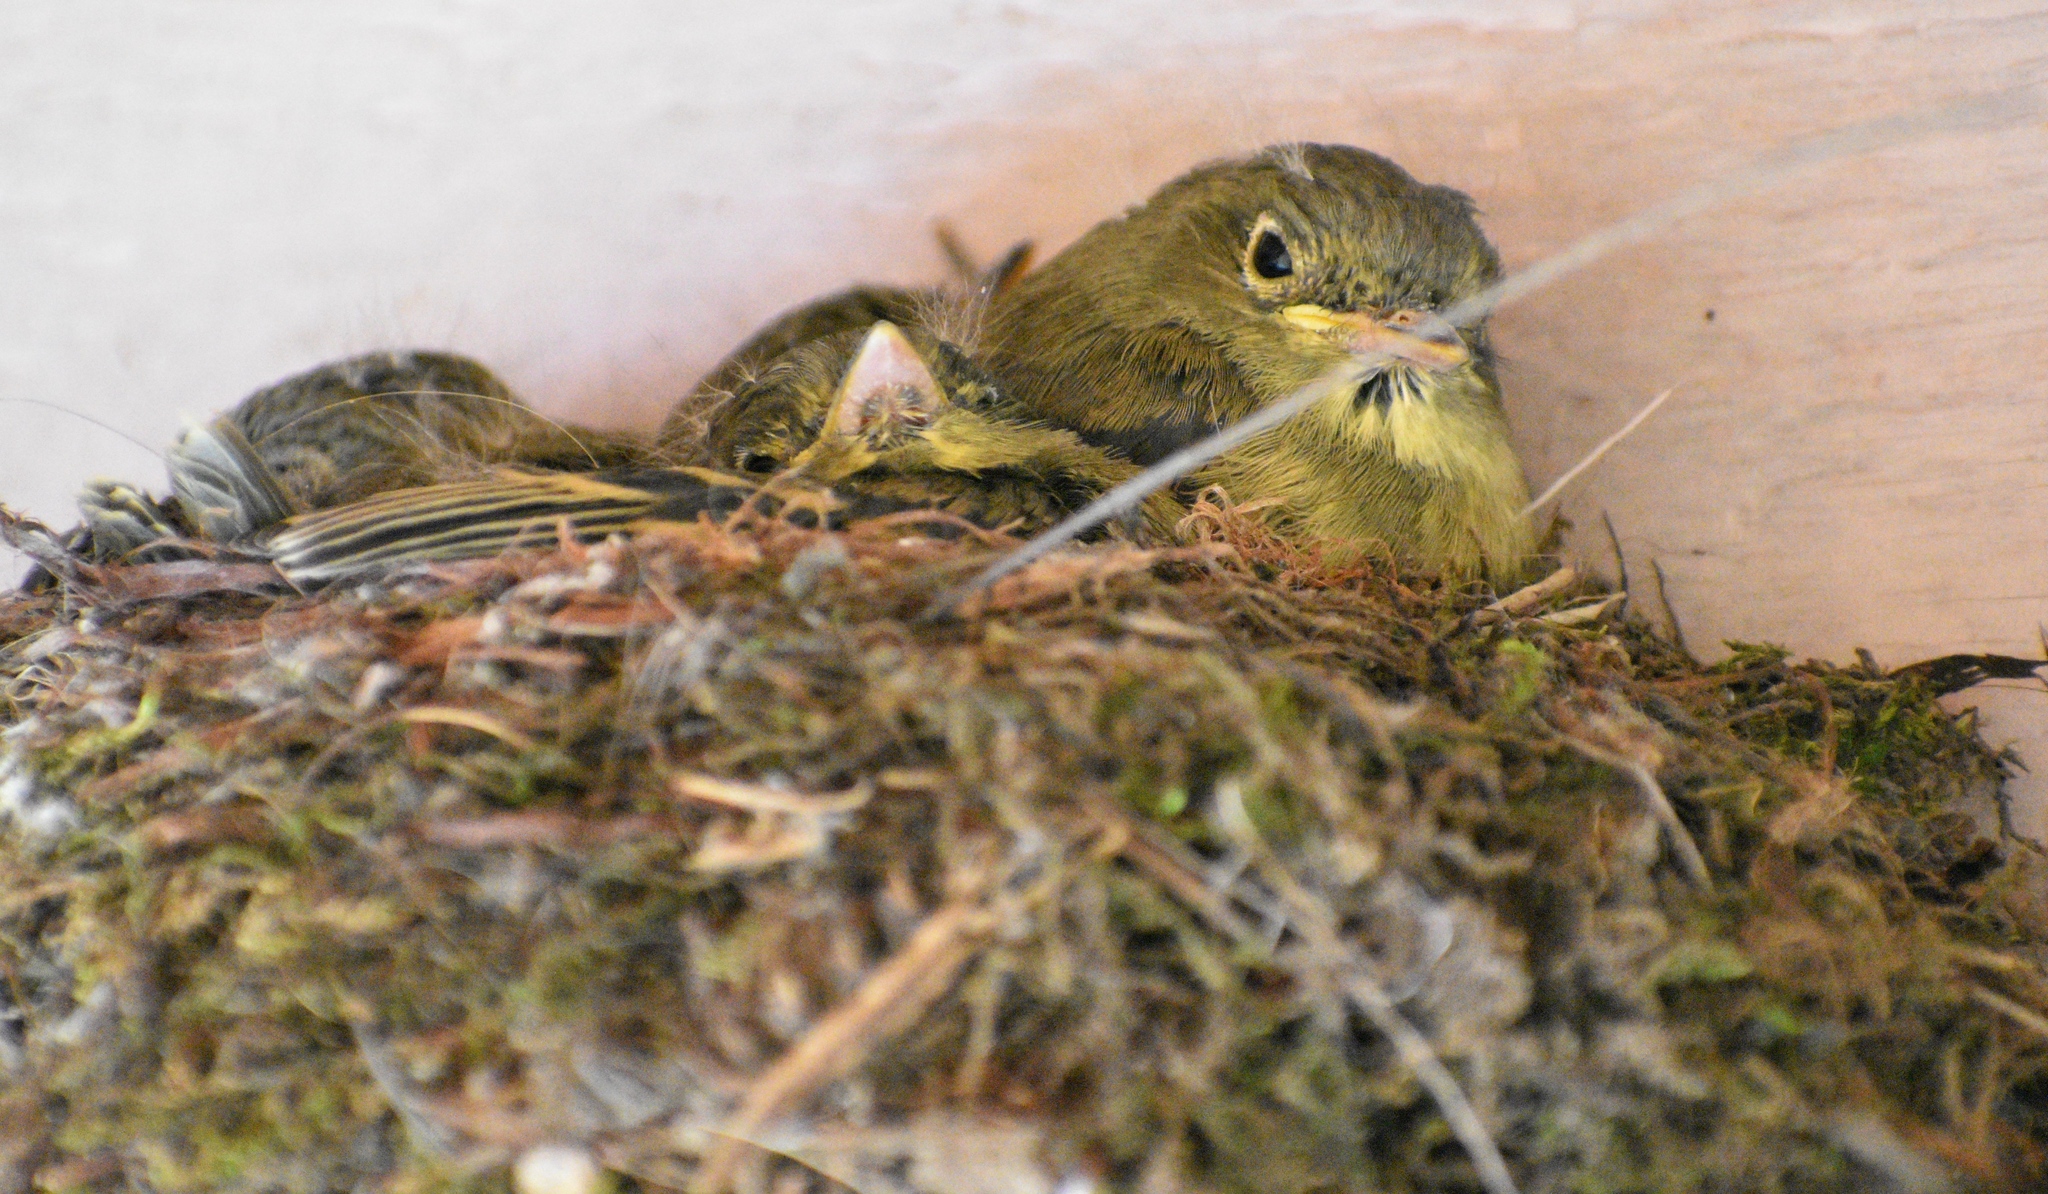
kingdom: Animalia
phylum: Chordata
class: Aves
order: Passeriformes
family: Tyrannidae
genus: Empidonax
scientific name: Empidonax difficilis
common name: Pacific-slope flycatcher
